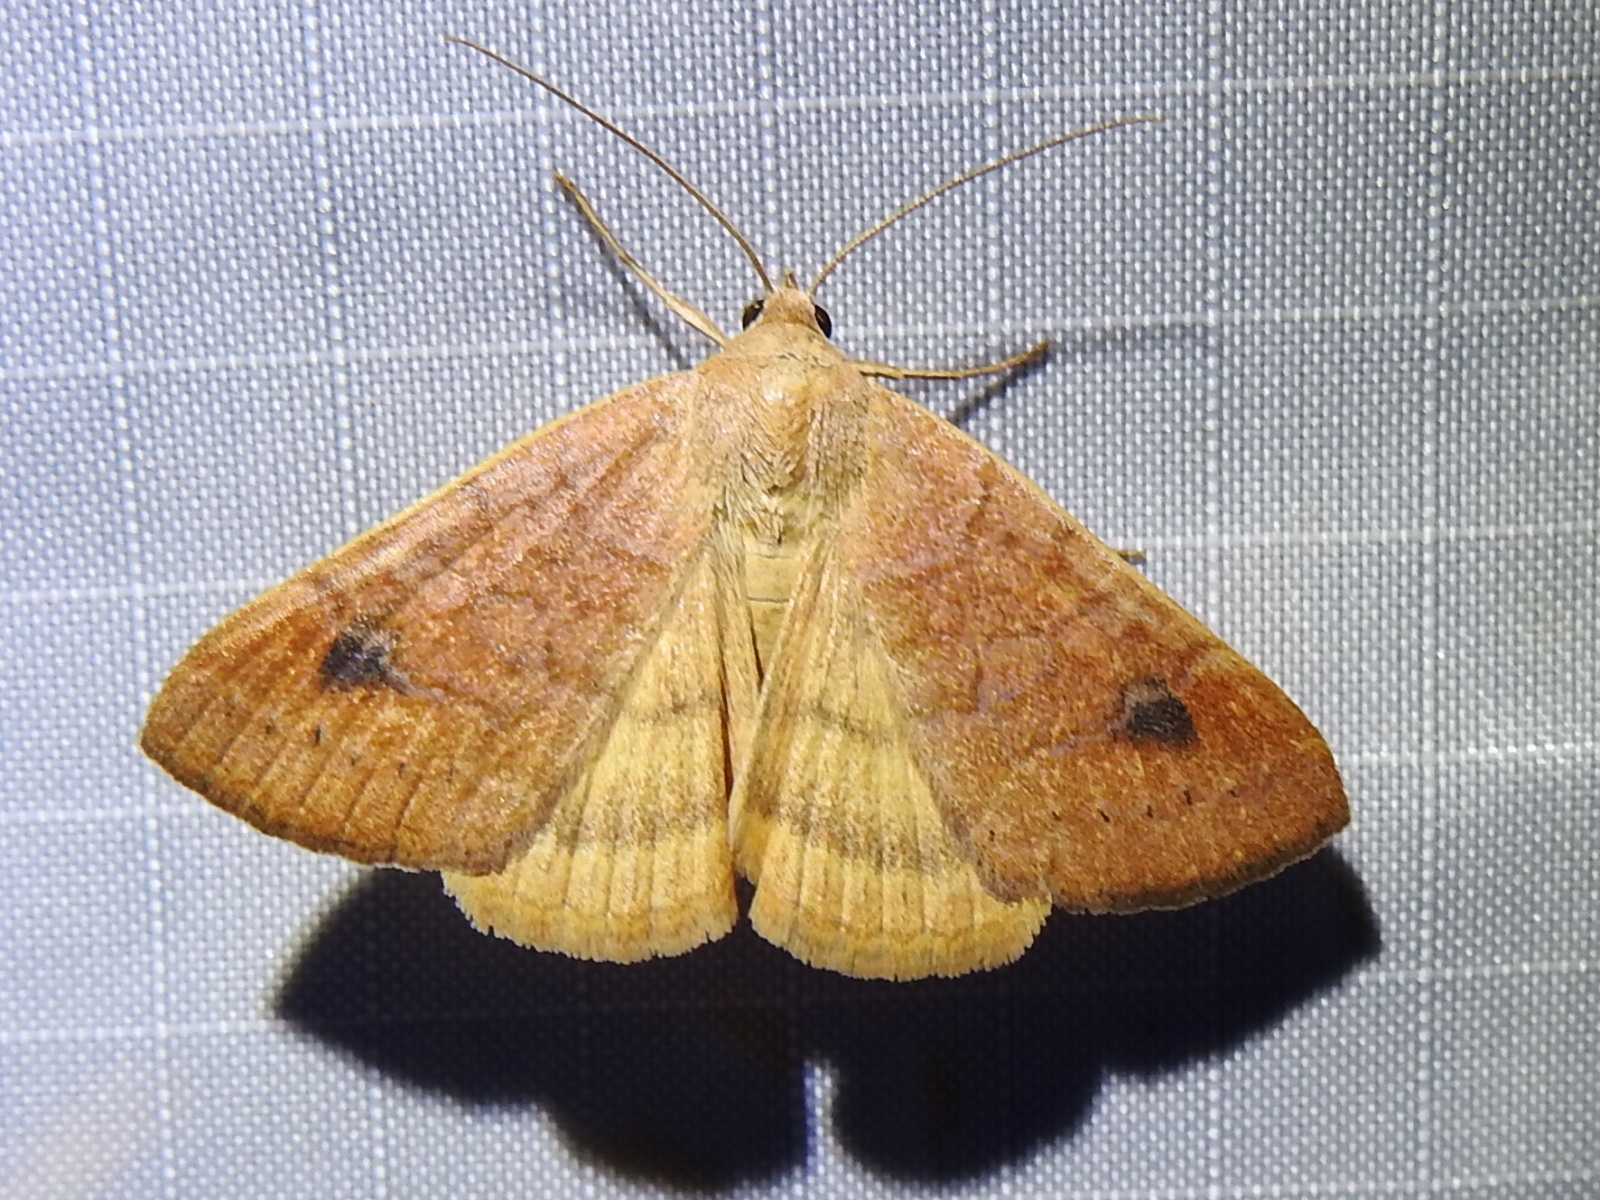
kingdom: Animalia
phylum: Arthropoda
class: Insecta
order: Lepidoptera
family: Erebidae
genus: Caenurgia
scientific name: Caenurgia chloropha
